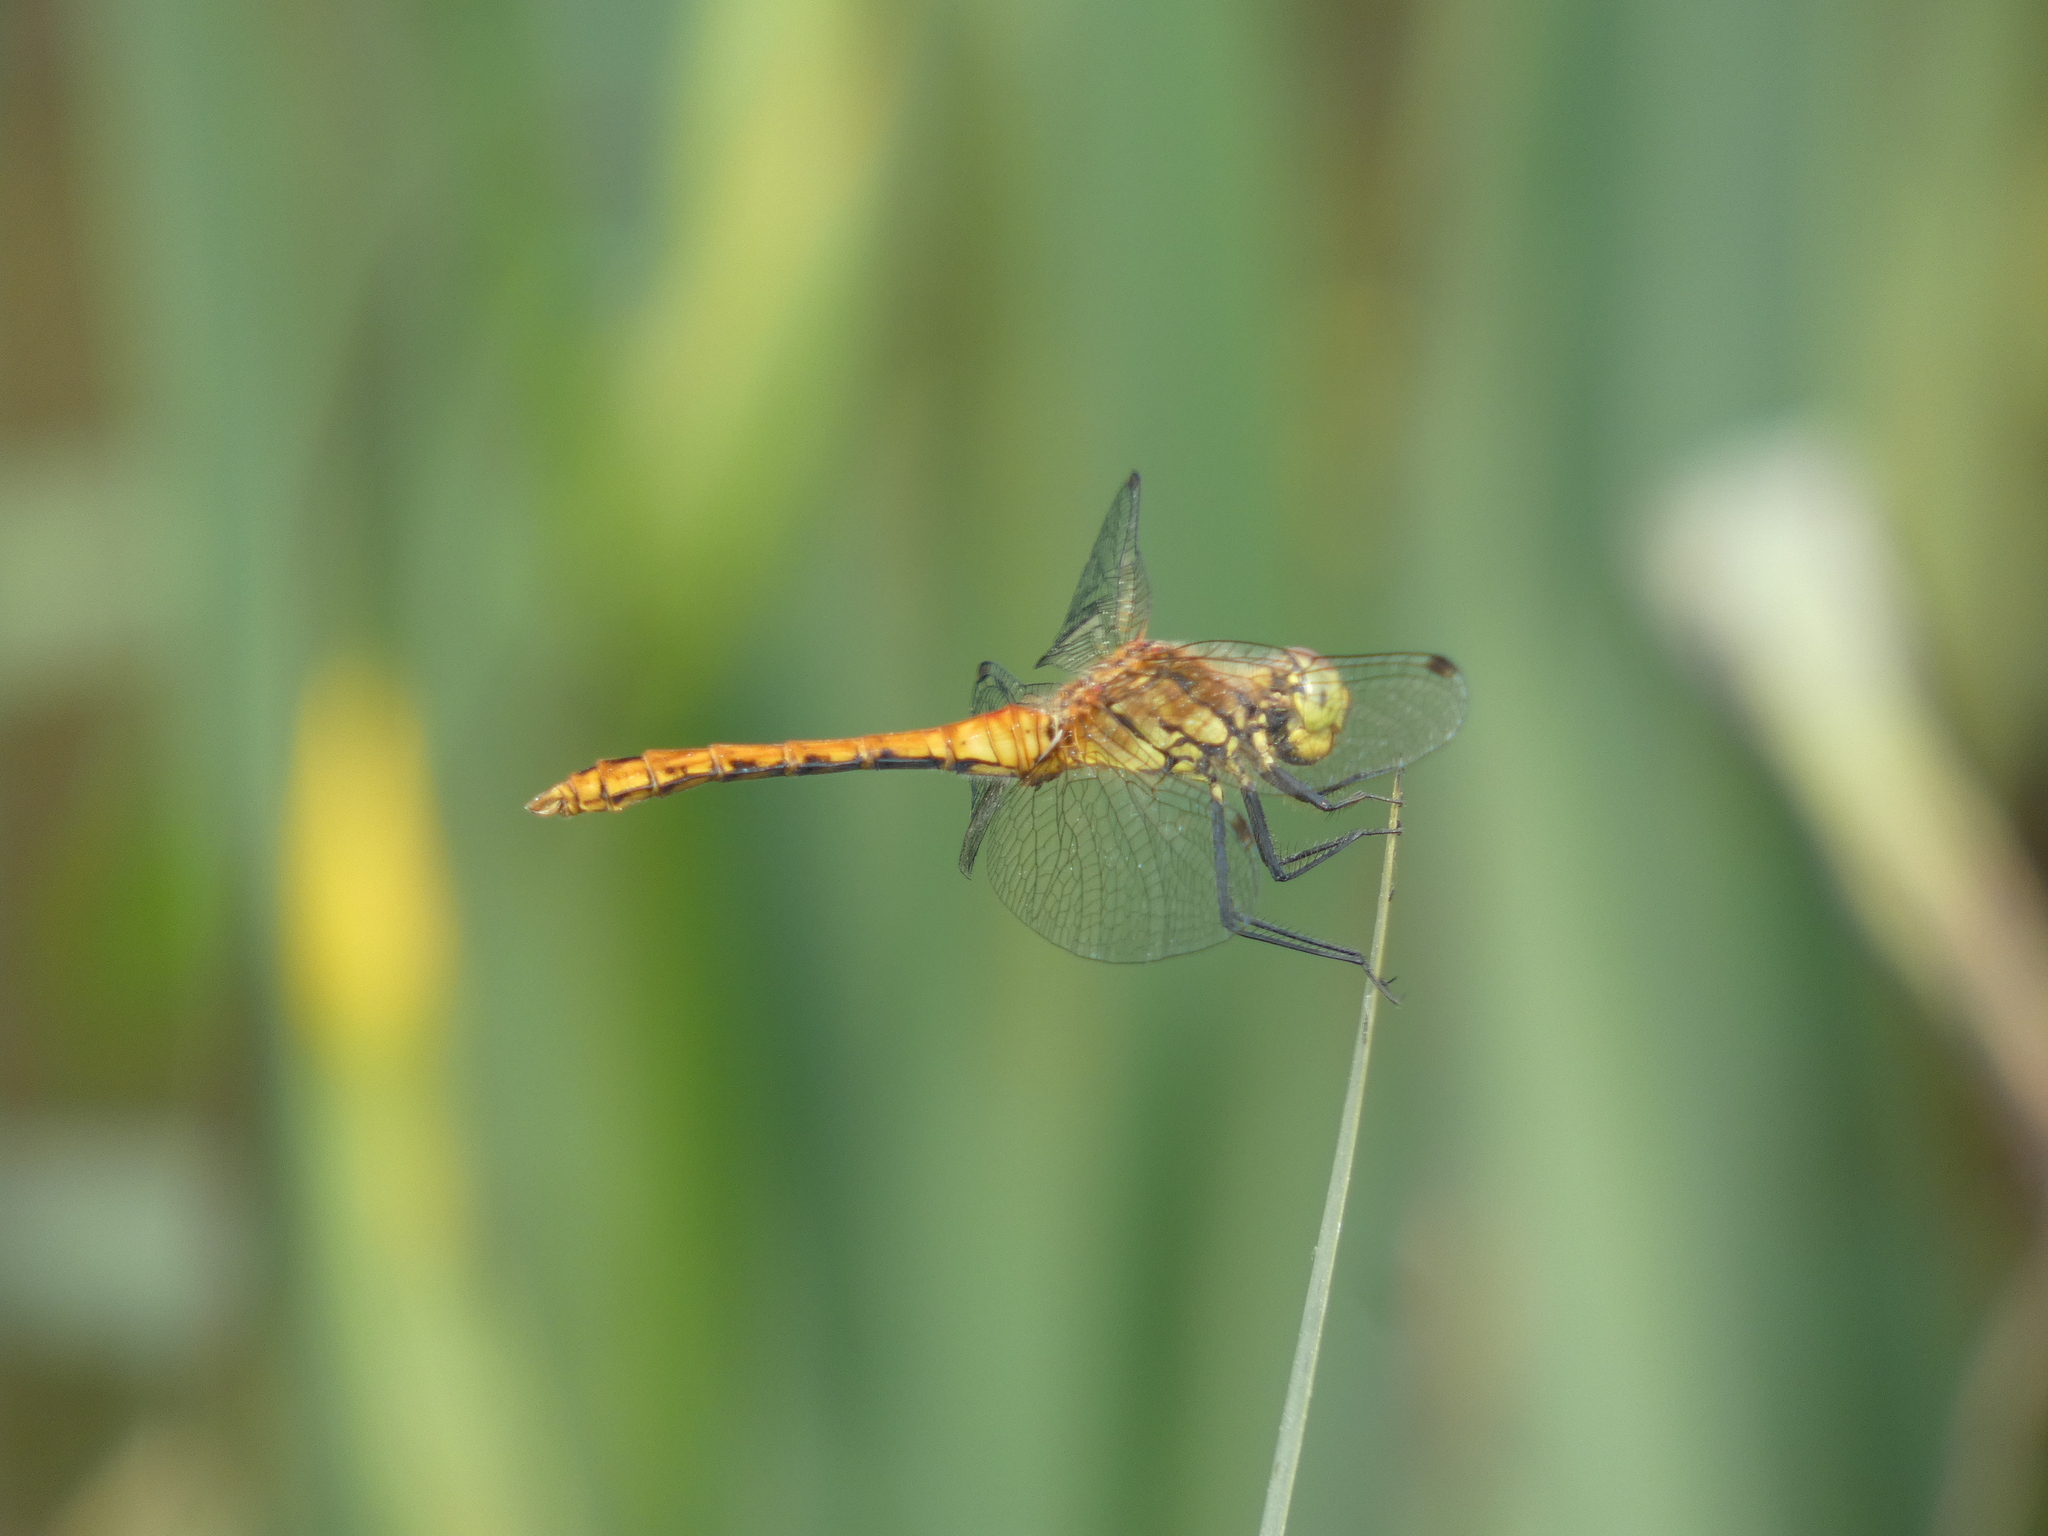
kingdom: Animalia
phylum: Arthropoda
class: Insecta
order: Odonata
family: Libellulidae
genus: Sympetrum
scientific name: Sympetrum sanguineum
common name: Ruddy darter
